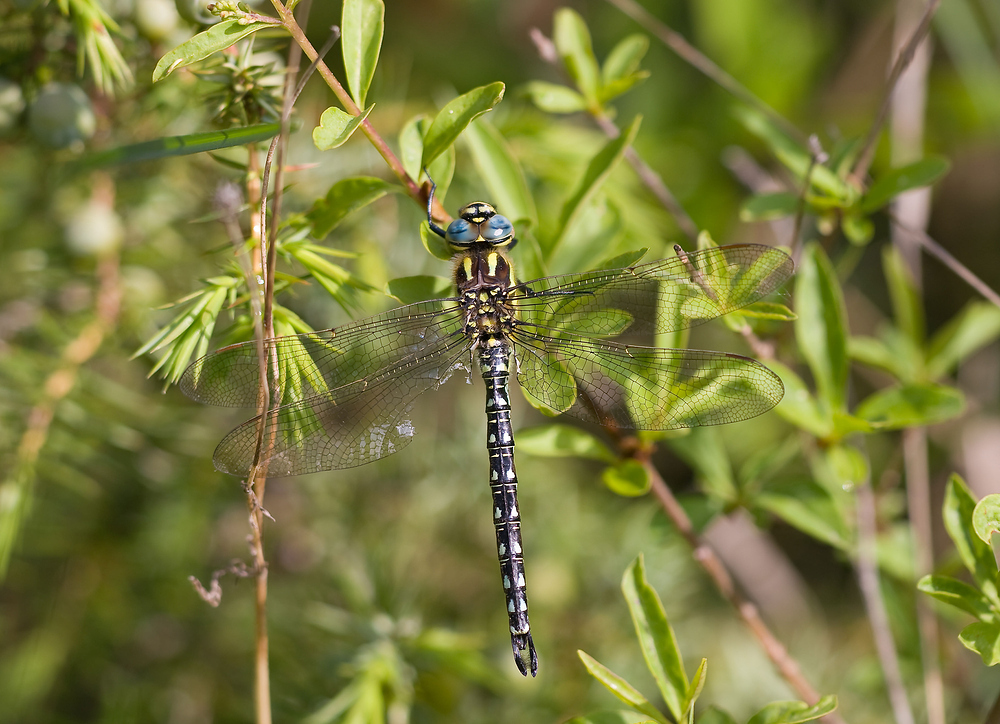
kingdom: Animalia
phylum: Arthropoda
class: Insecta
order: Odonata
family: Aeshnidae
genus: Brachytron
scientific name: Brachytron pratense
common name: Hairy hawker
